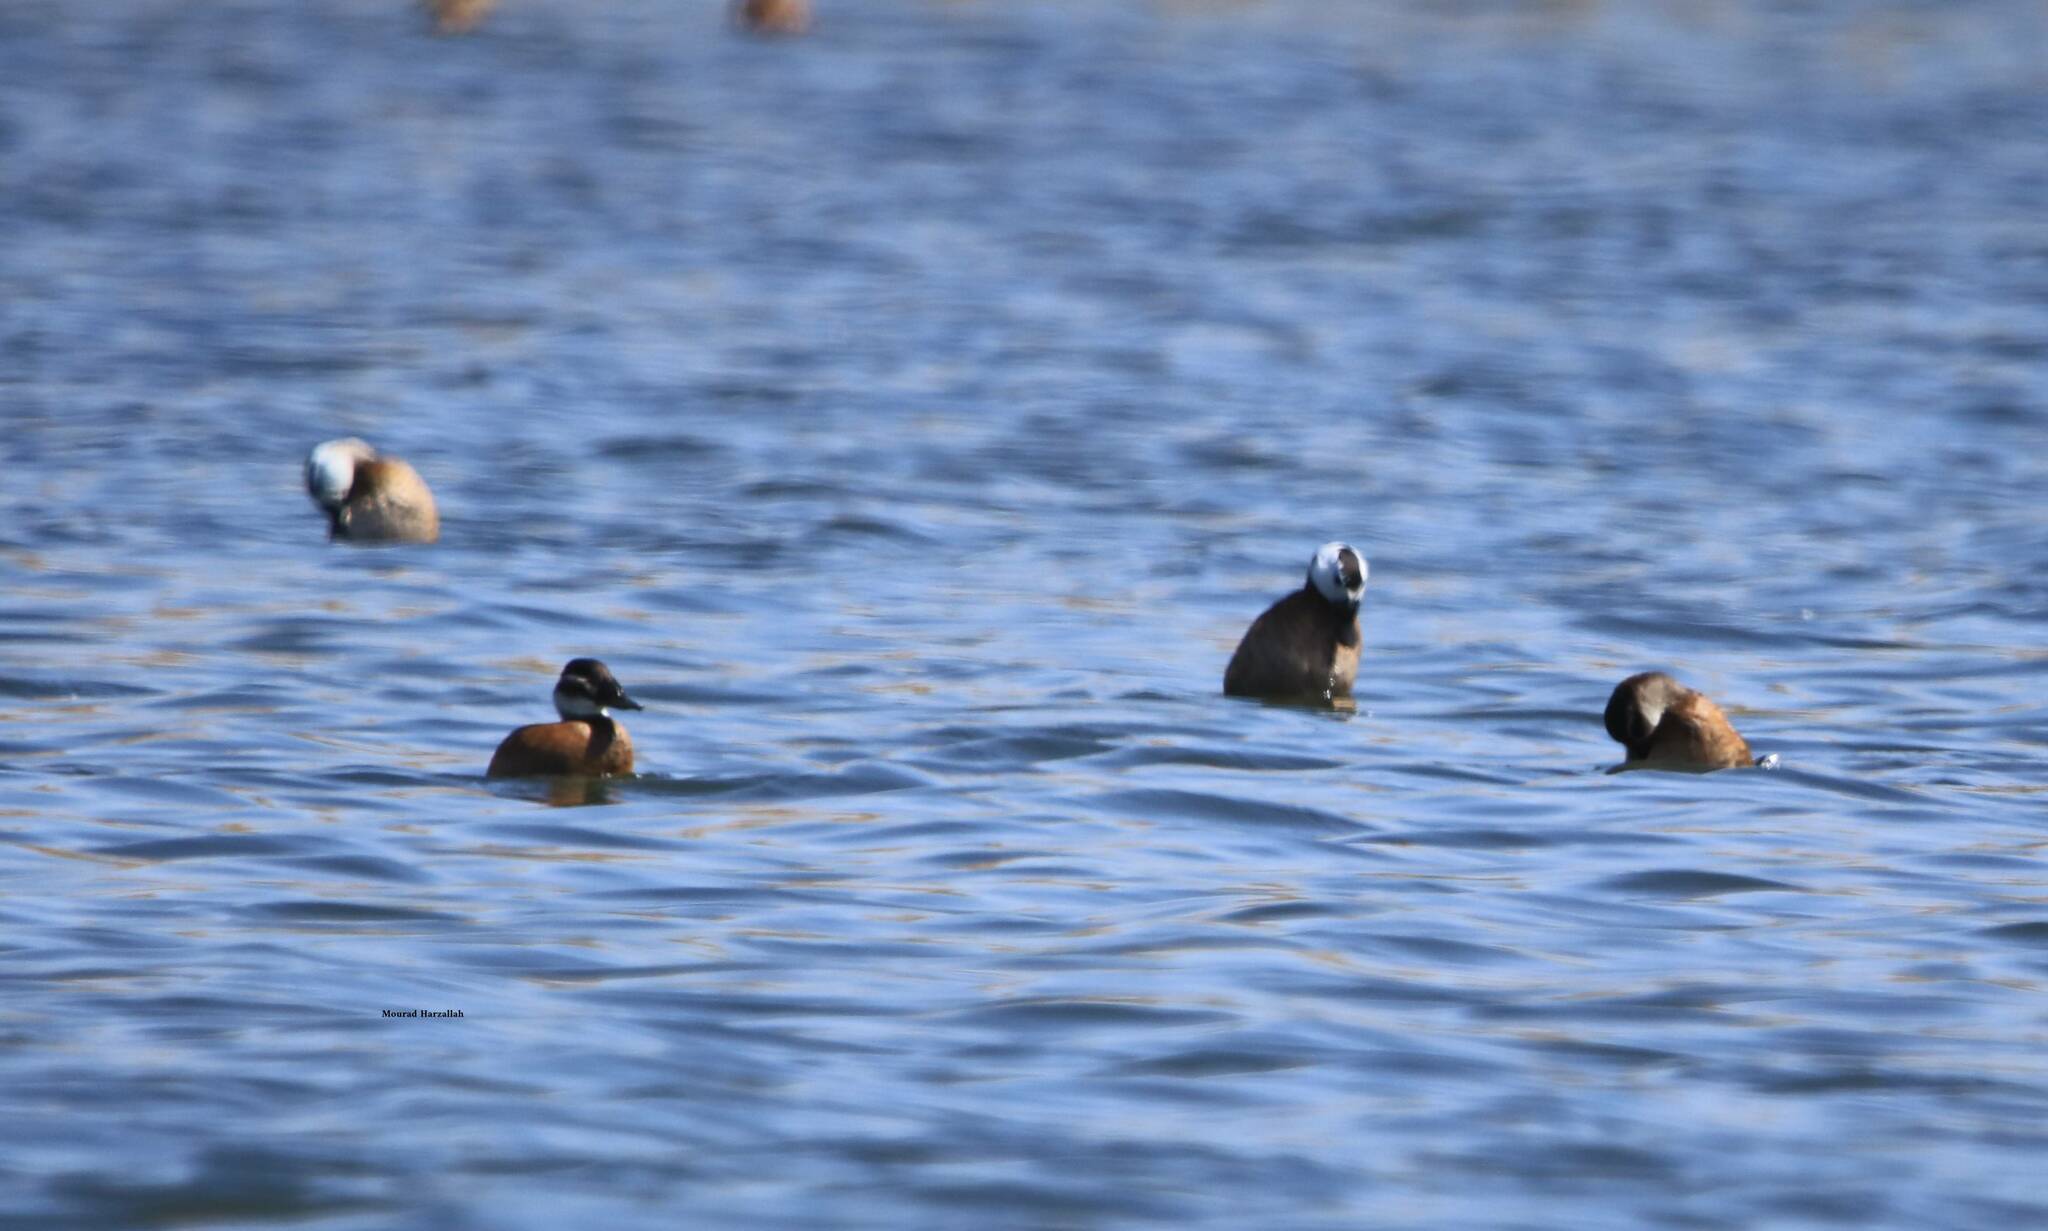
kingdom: Animalia
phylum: Chordata
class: Aves
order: Anseriformes
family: Anatidae
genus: Oxyura
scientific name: Oxyura leucocephala
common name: White-headed duck
